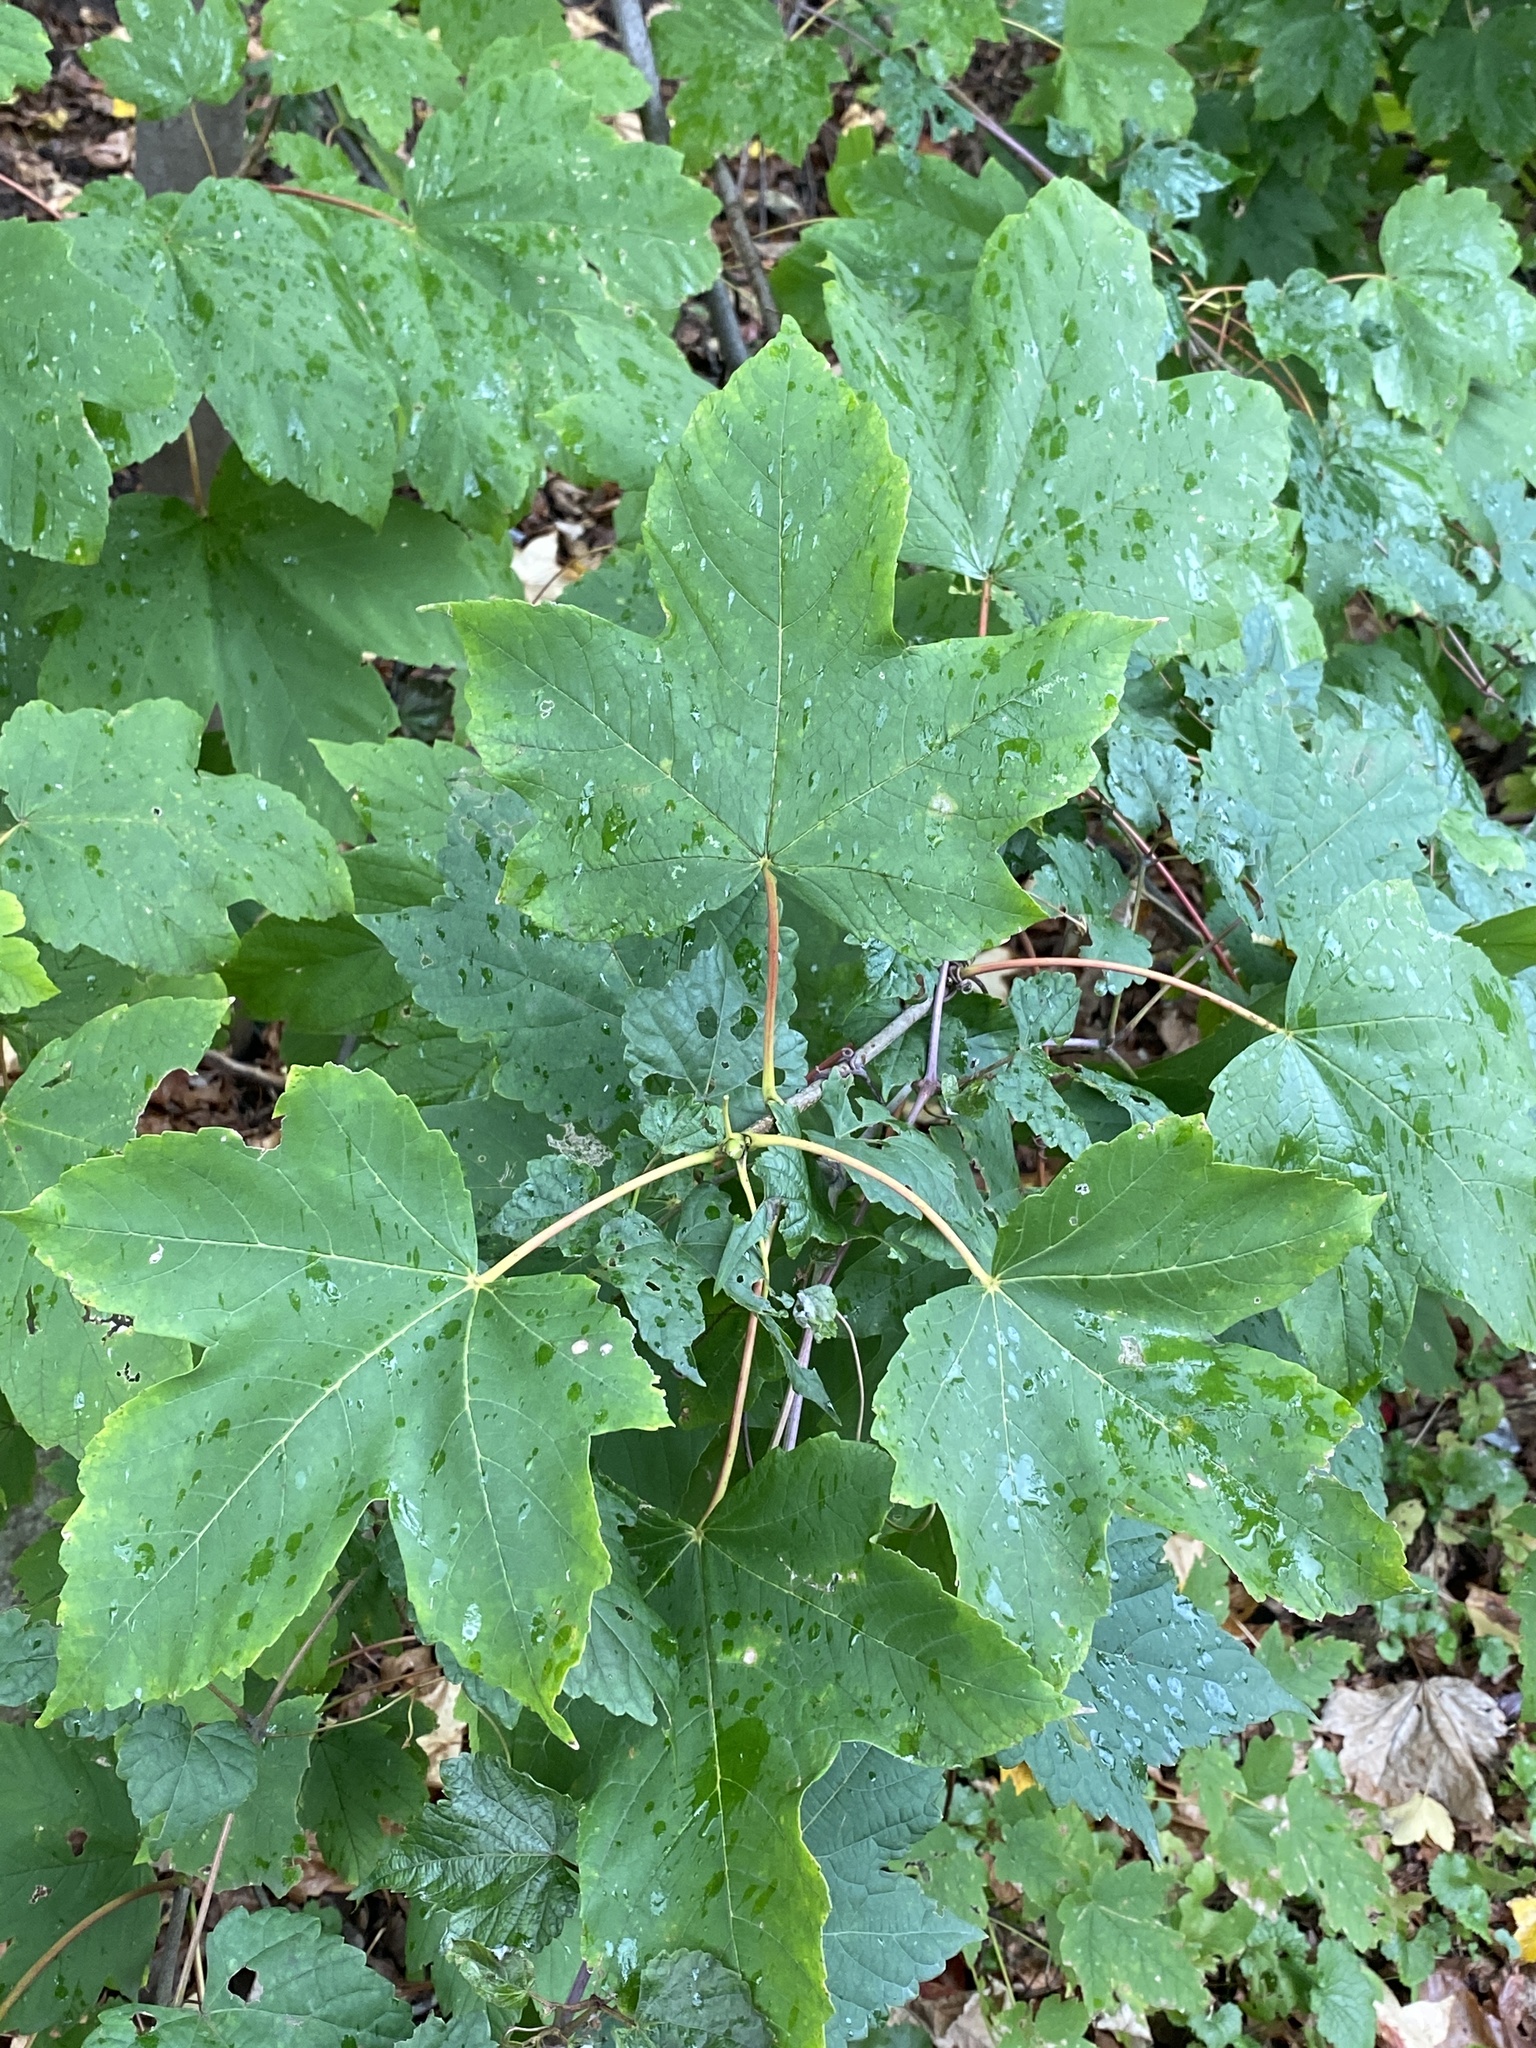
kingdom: Plantae
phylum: Tracheophyta
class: Magnoliopsida
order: Sapindales
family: Sapindaceae
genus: Acer
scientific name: Acer pseudoplatanus
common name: Sycamore
